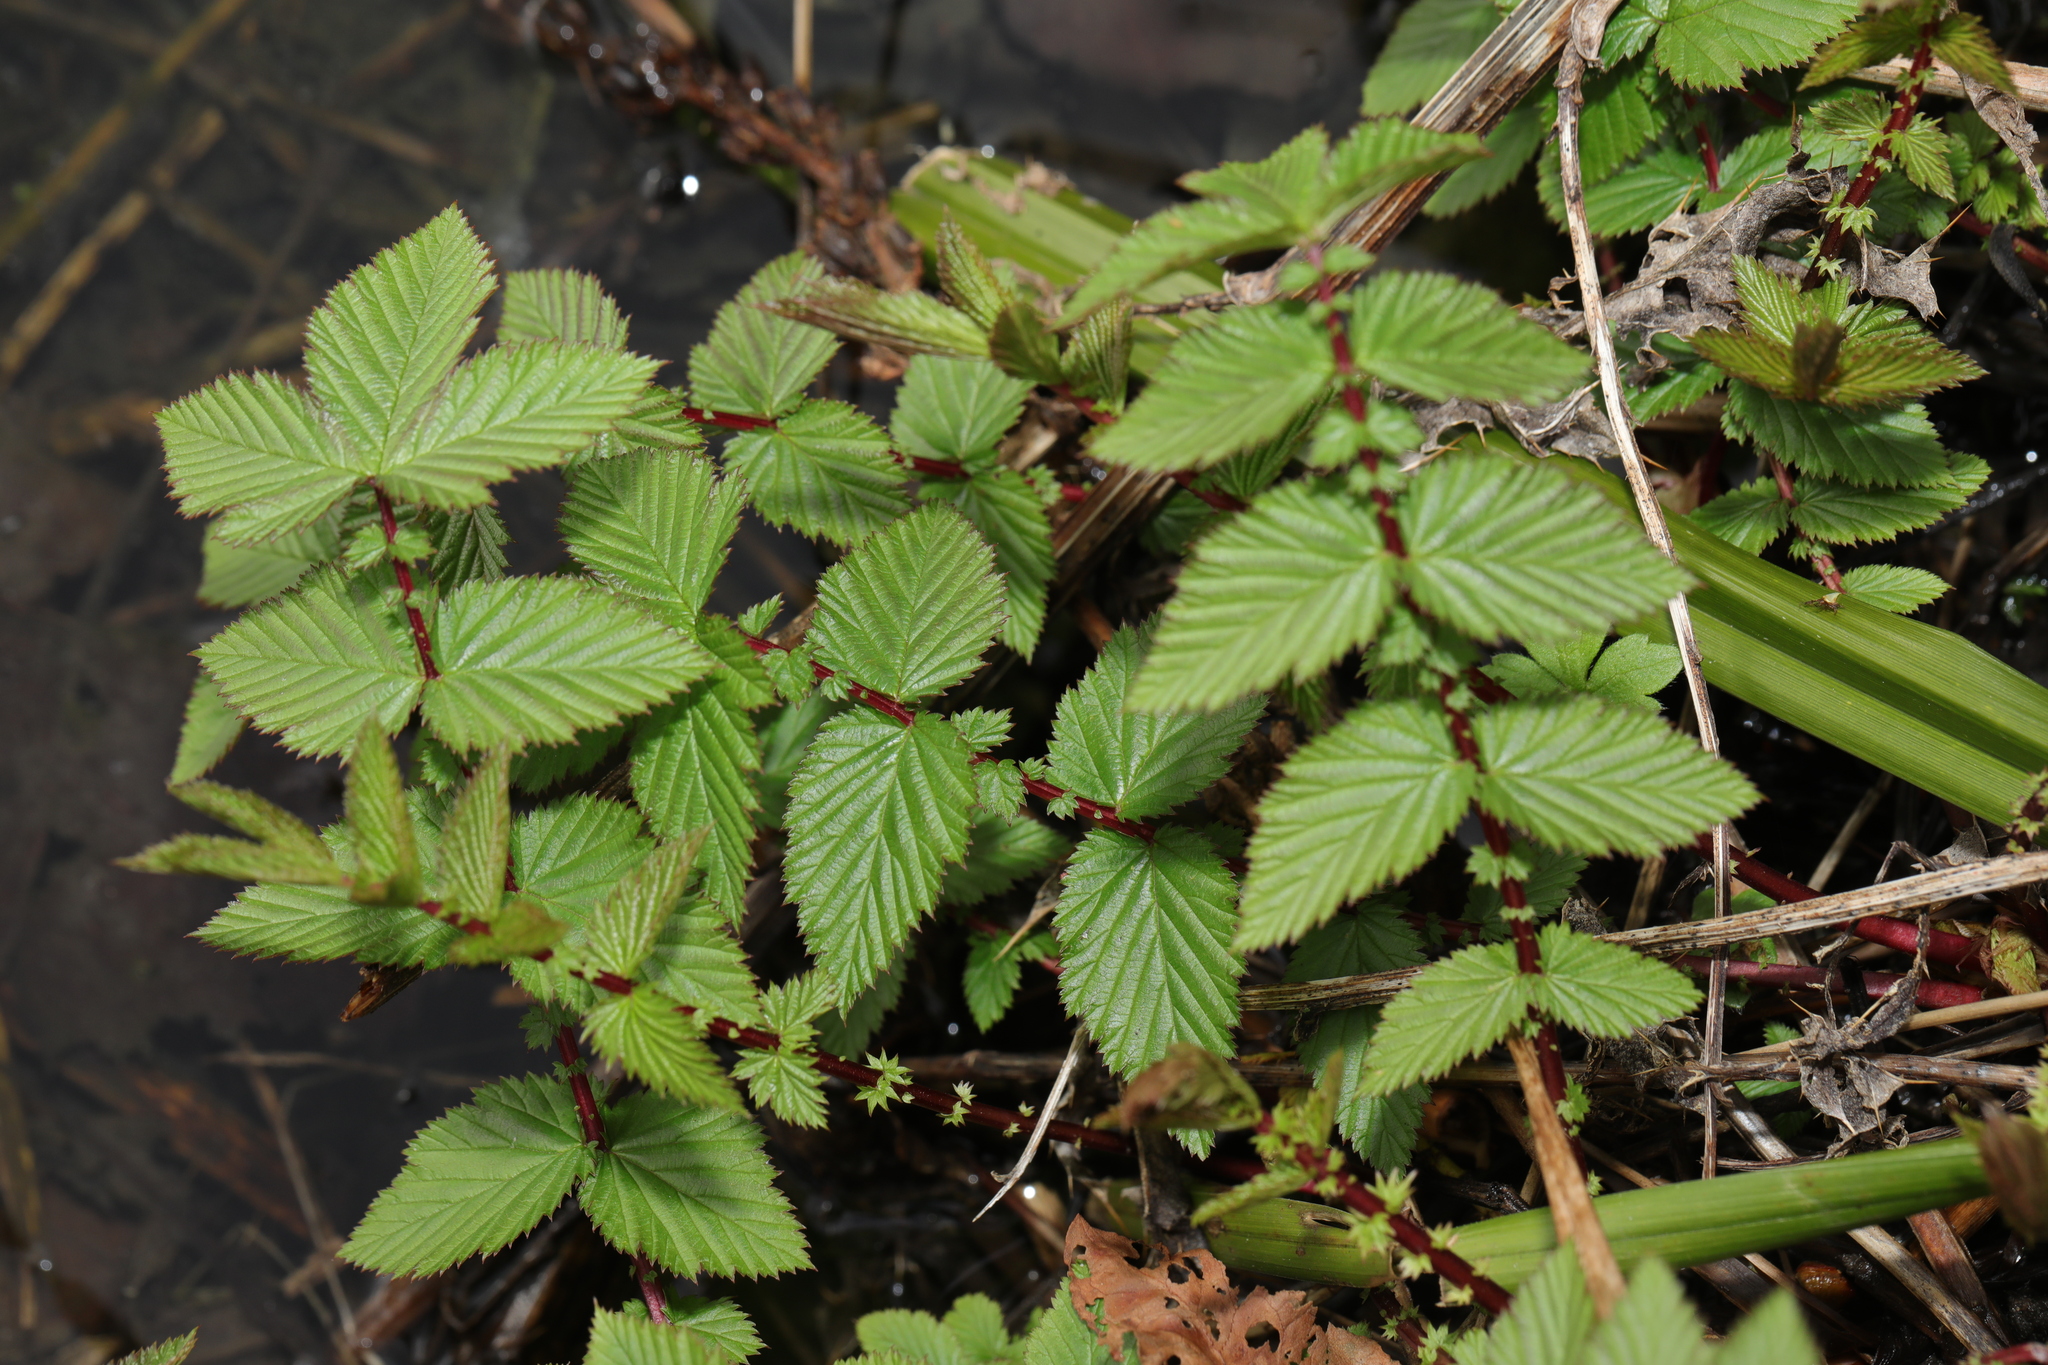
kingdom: Plantae
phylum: Tracheophyta
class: Magnoliopsida
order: Rosales
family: Rosaceae
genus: Filipendula
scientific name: Filipendula ulmaria
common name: Meadowsweet
